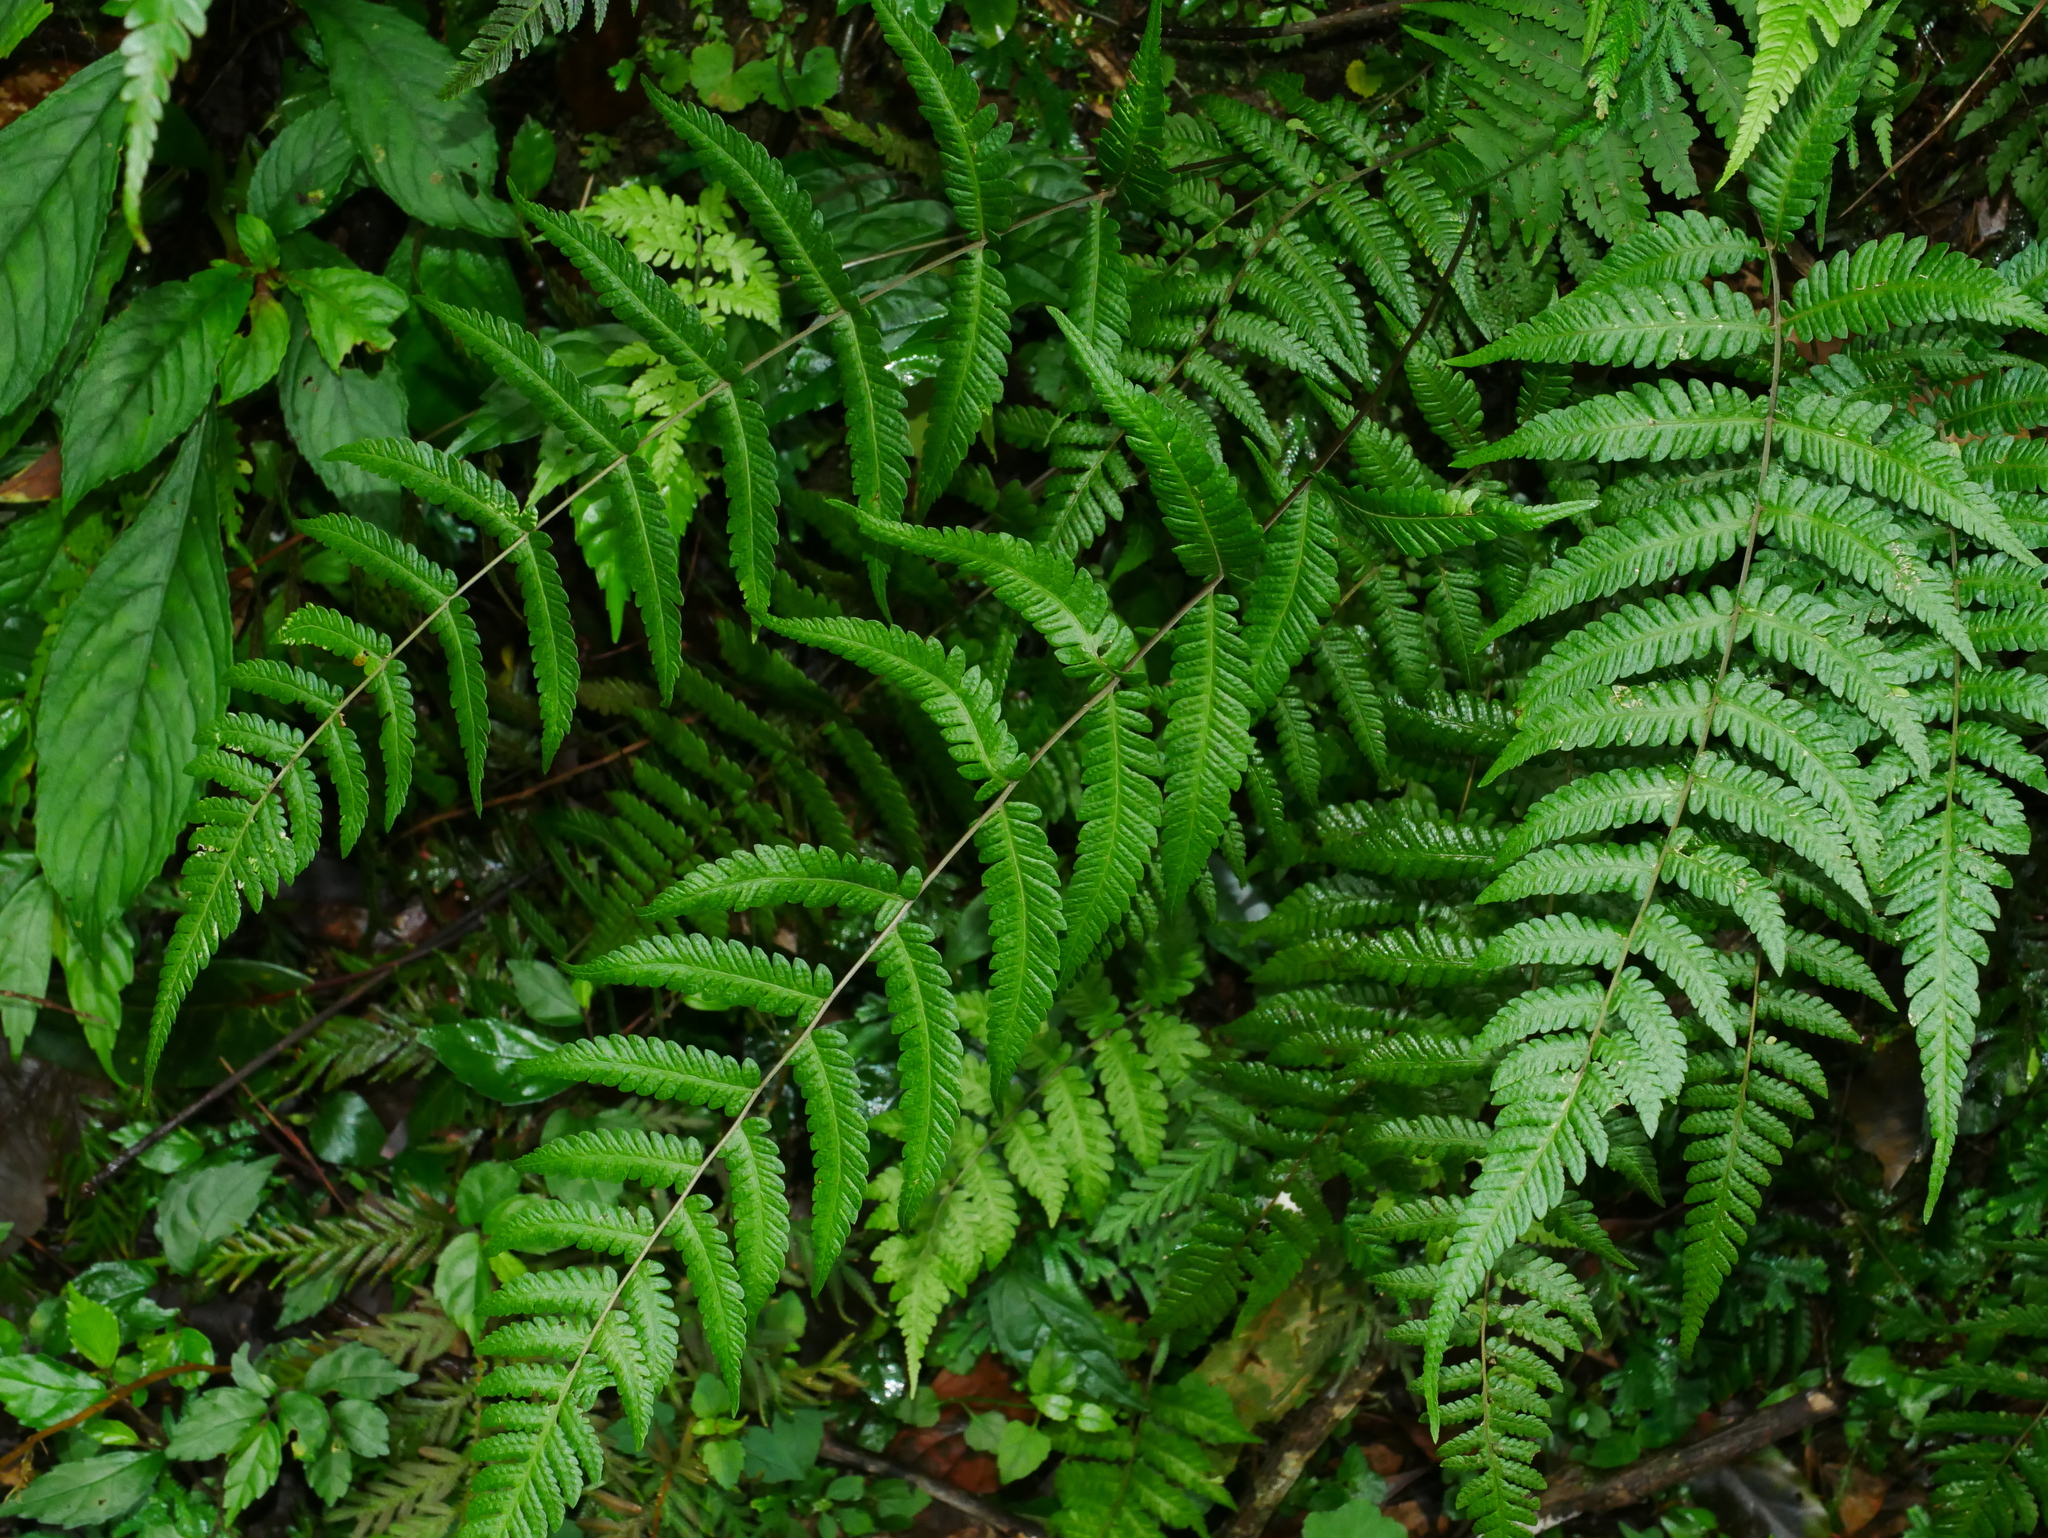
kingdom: Plantae
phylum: Tracheophyta
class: Polypodiopsida
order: Polypodiales
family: Thelypteridaceae
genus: Metathelypteris
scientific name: Metathelypteris adscendens
